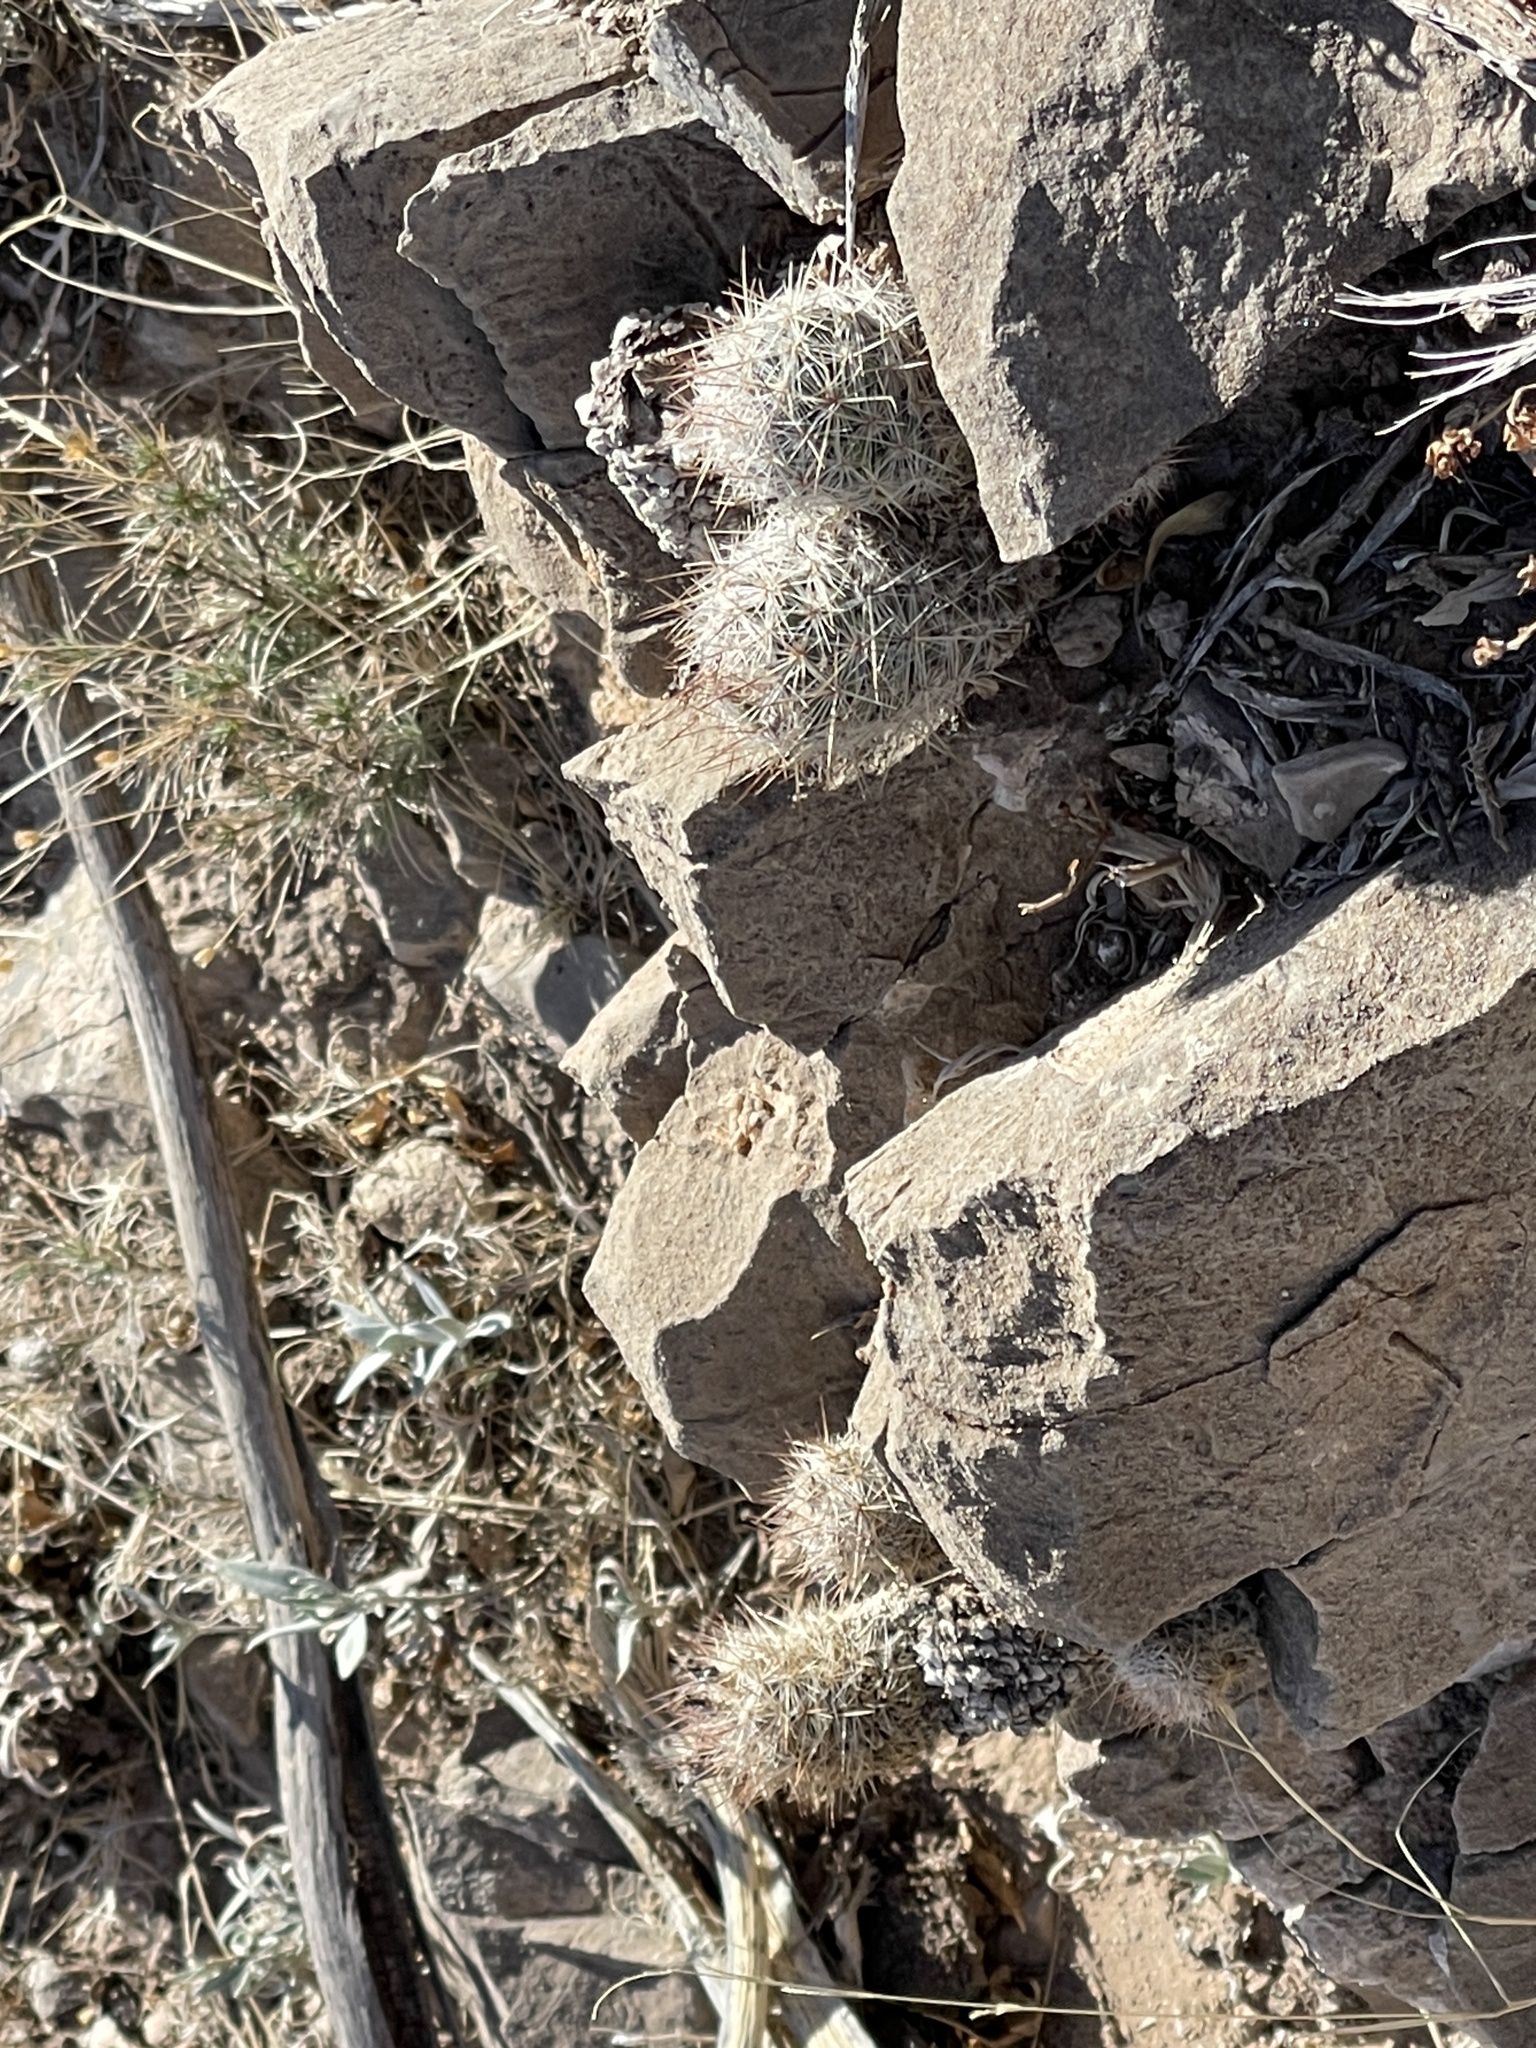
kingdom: Plantae
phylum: Tracheophyta
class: Magnoliopsida
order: Caryophyllales
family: Cactaceae
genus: Pelecyphora
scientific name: Pelecyphora tuberculosa
